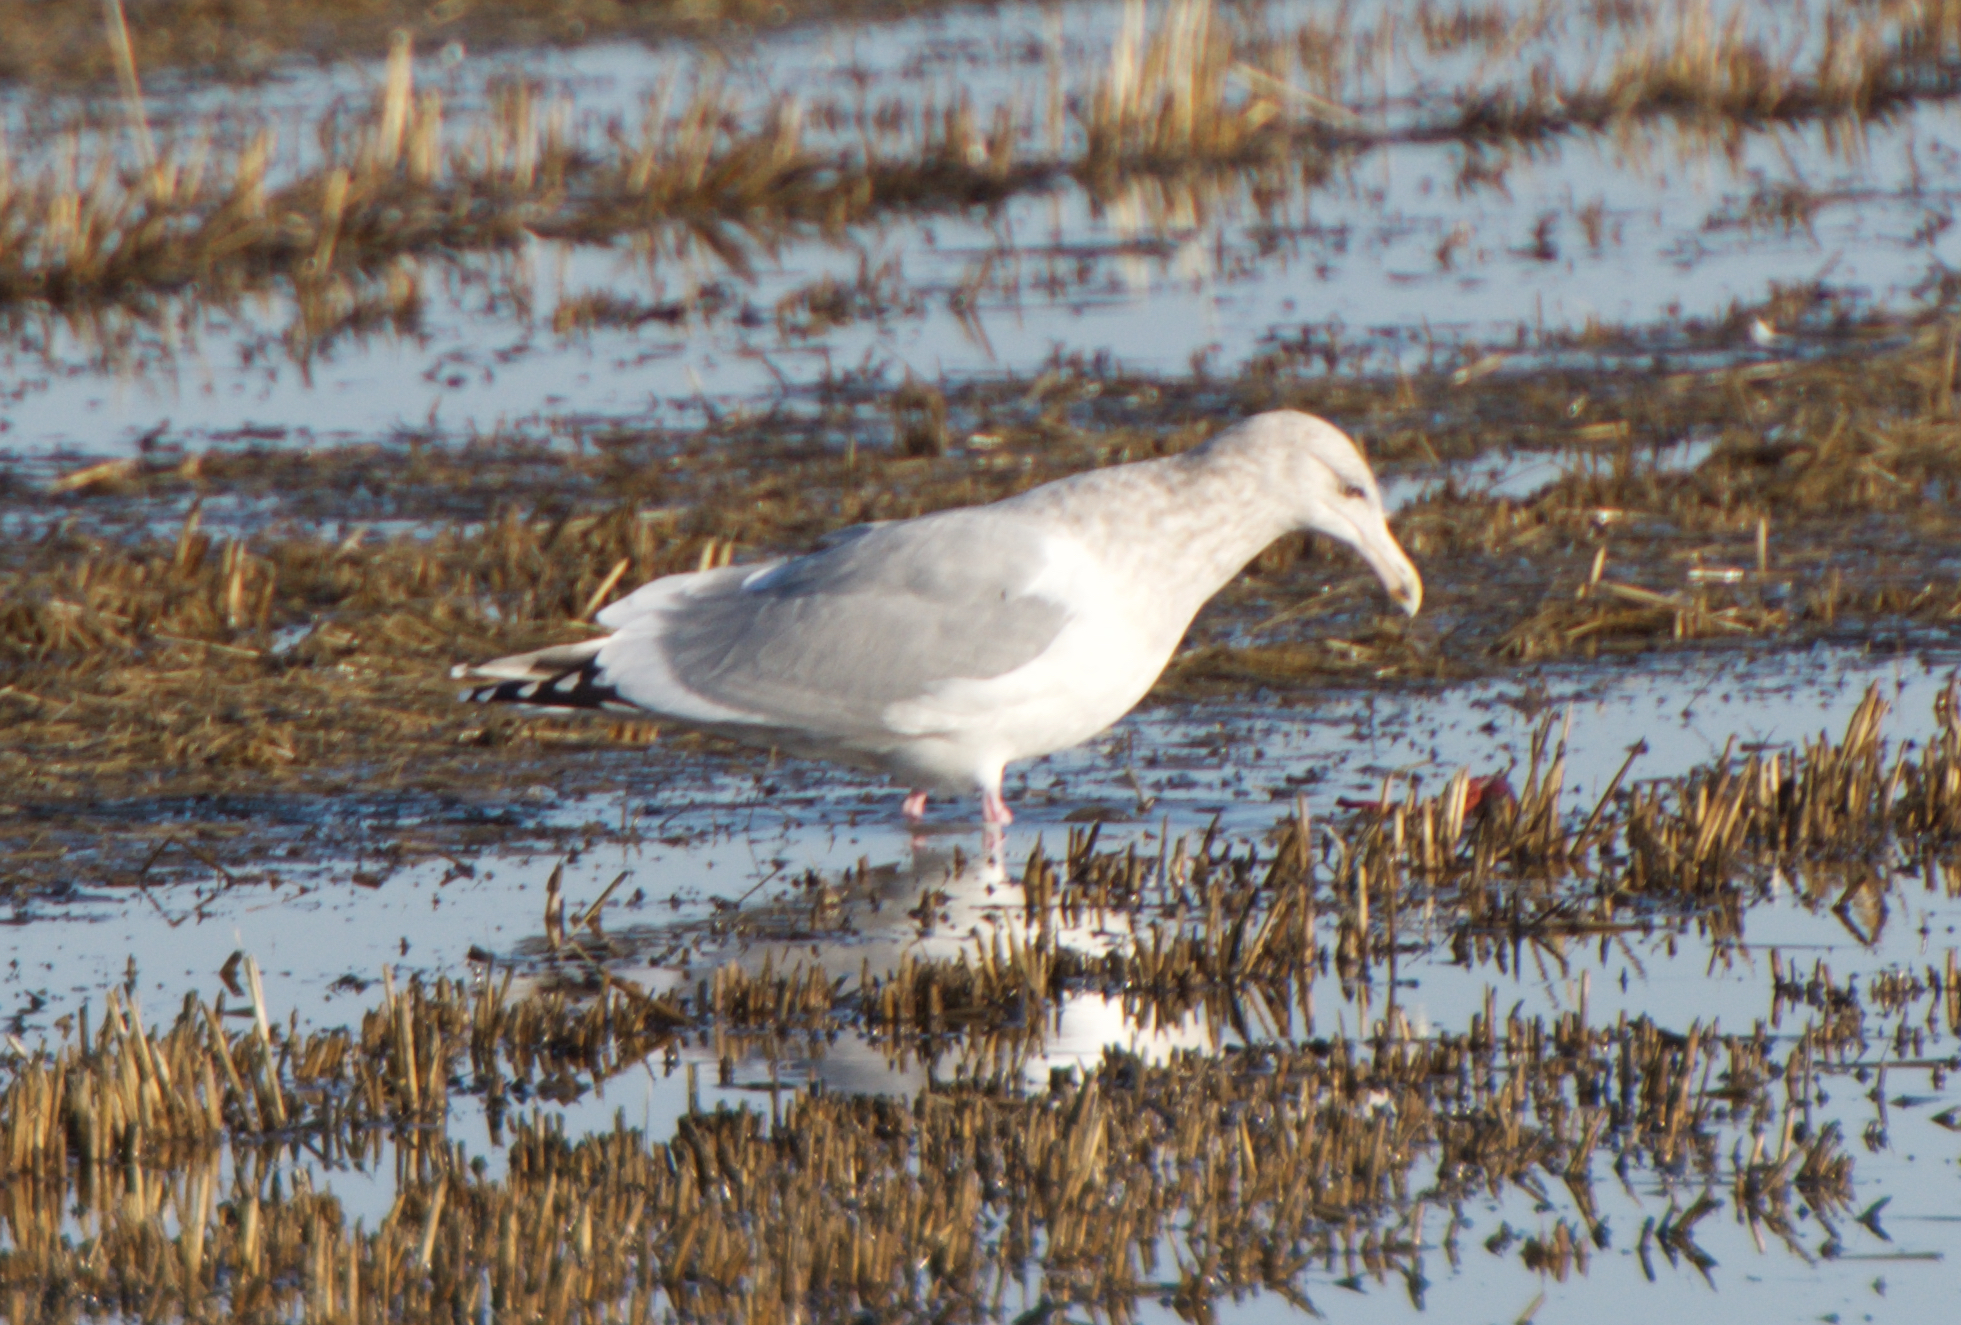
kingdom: Animalia
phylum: Chordata
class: Aves
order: Charadriiformes
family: Laridae
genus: Larus
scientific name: Larus argentatus
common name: Herring gull
